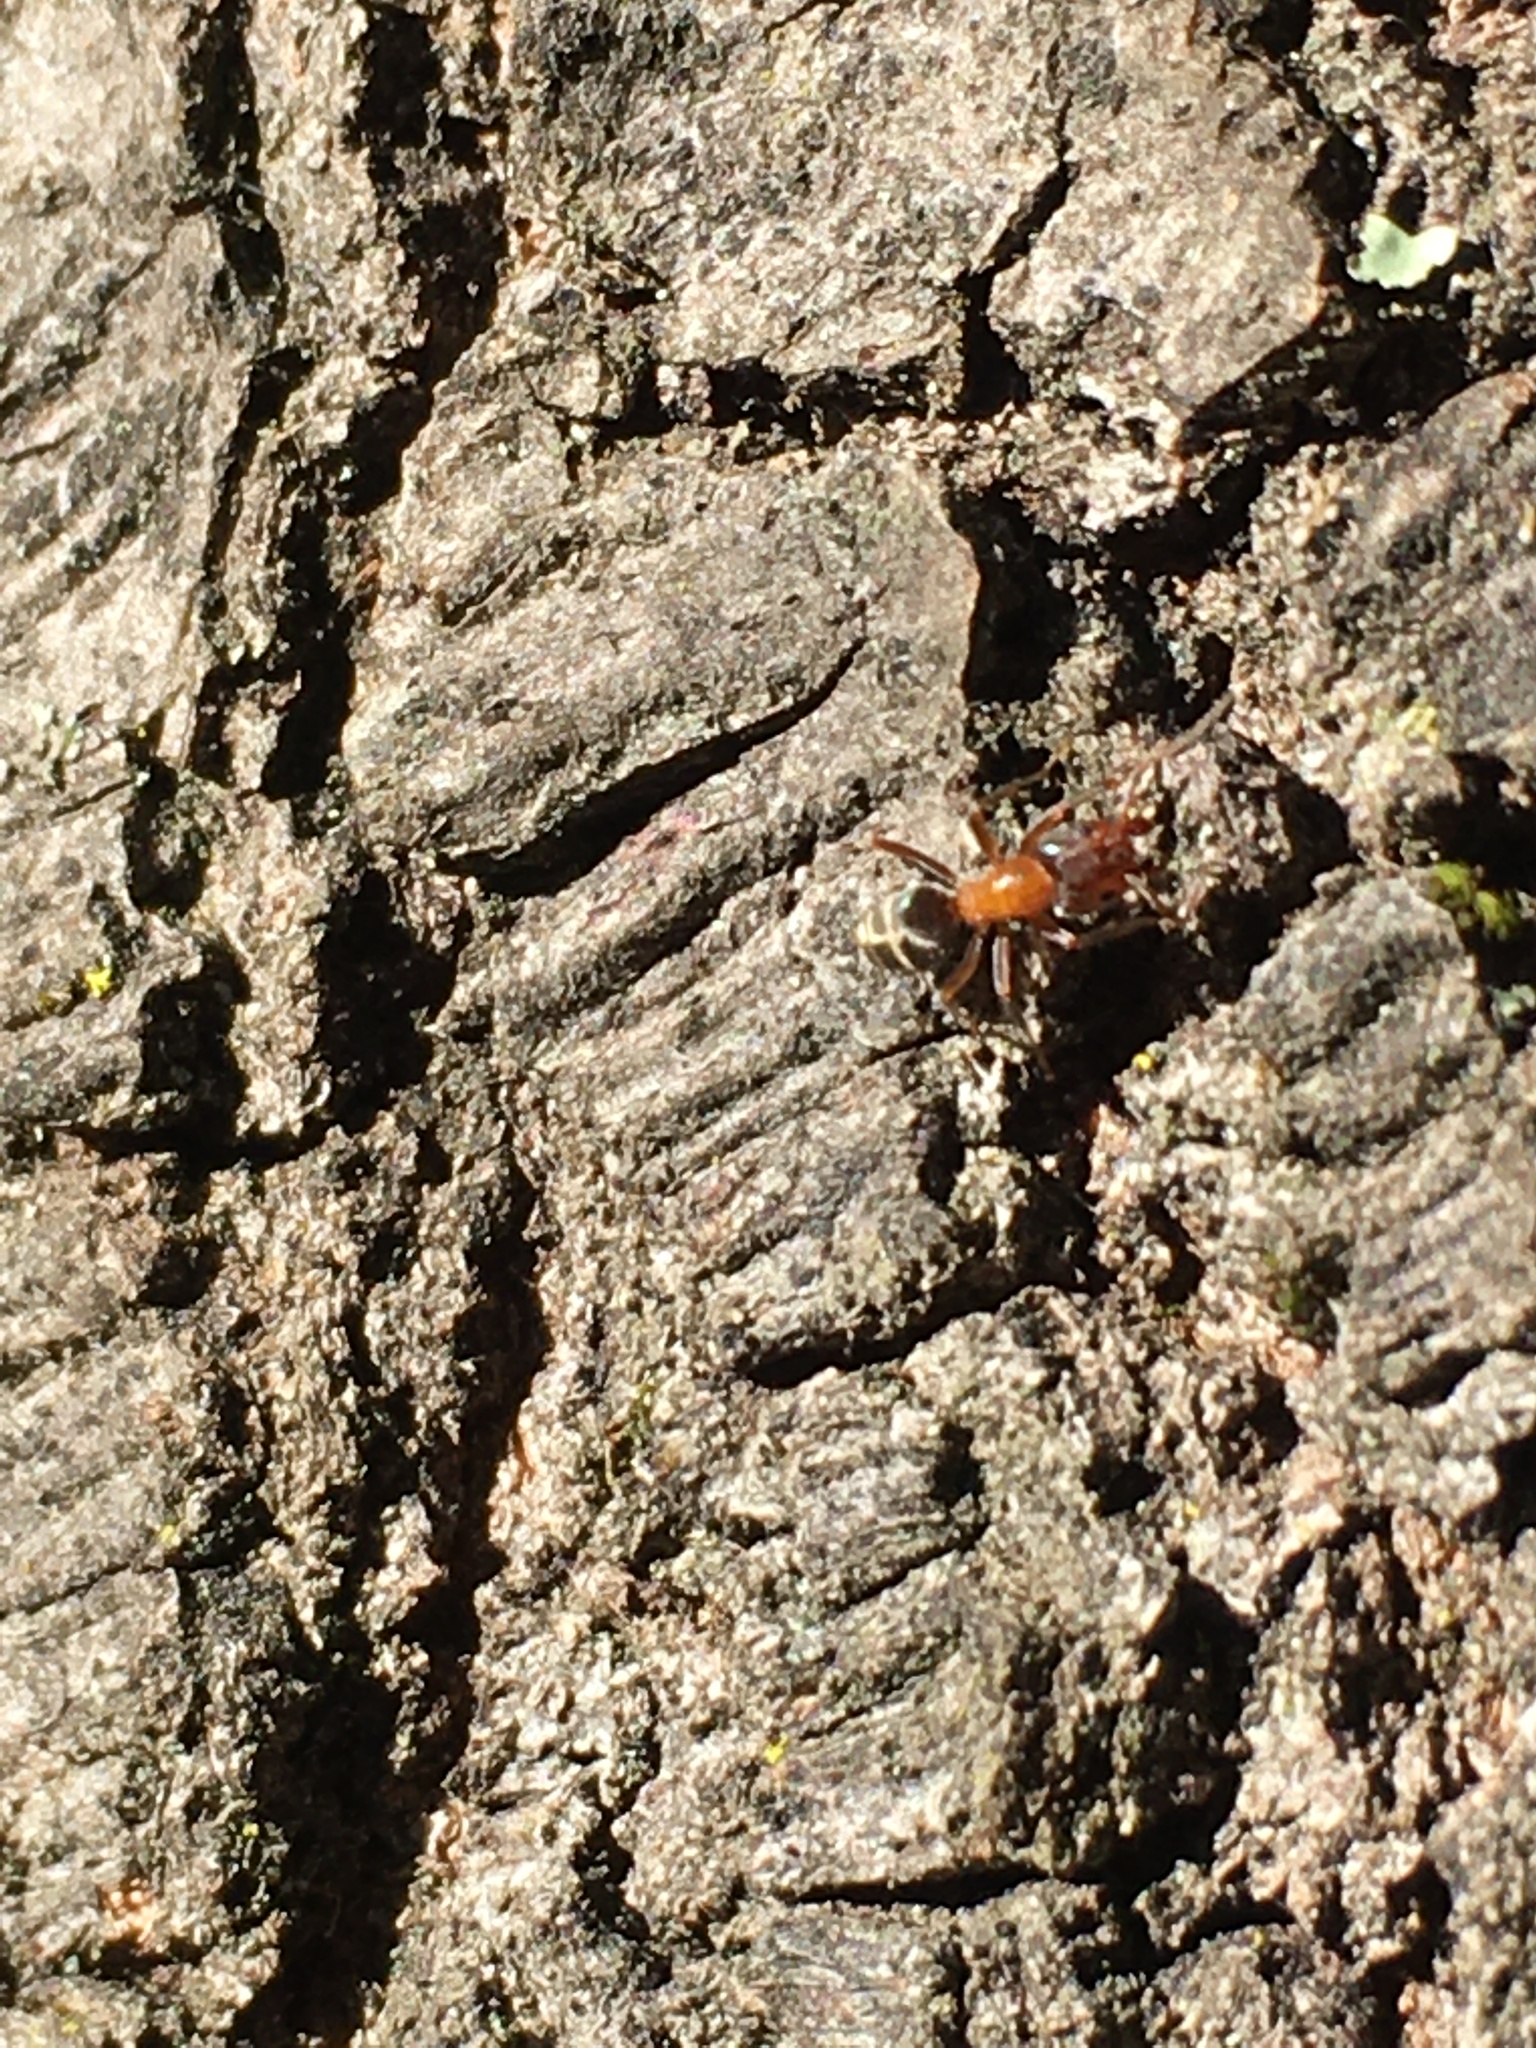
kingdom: Animalia
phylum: Arthropoda
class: Insecta
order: Hymenoptera
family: Formicidae
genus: Liometopum
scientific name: Liometopum occidentale
